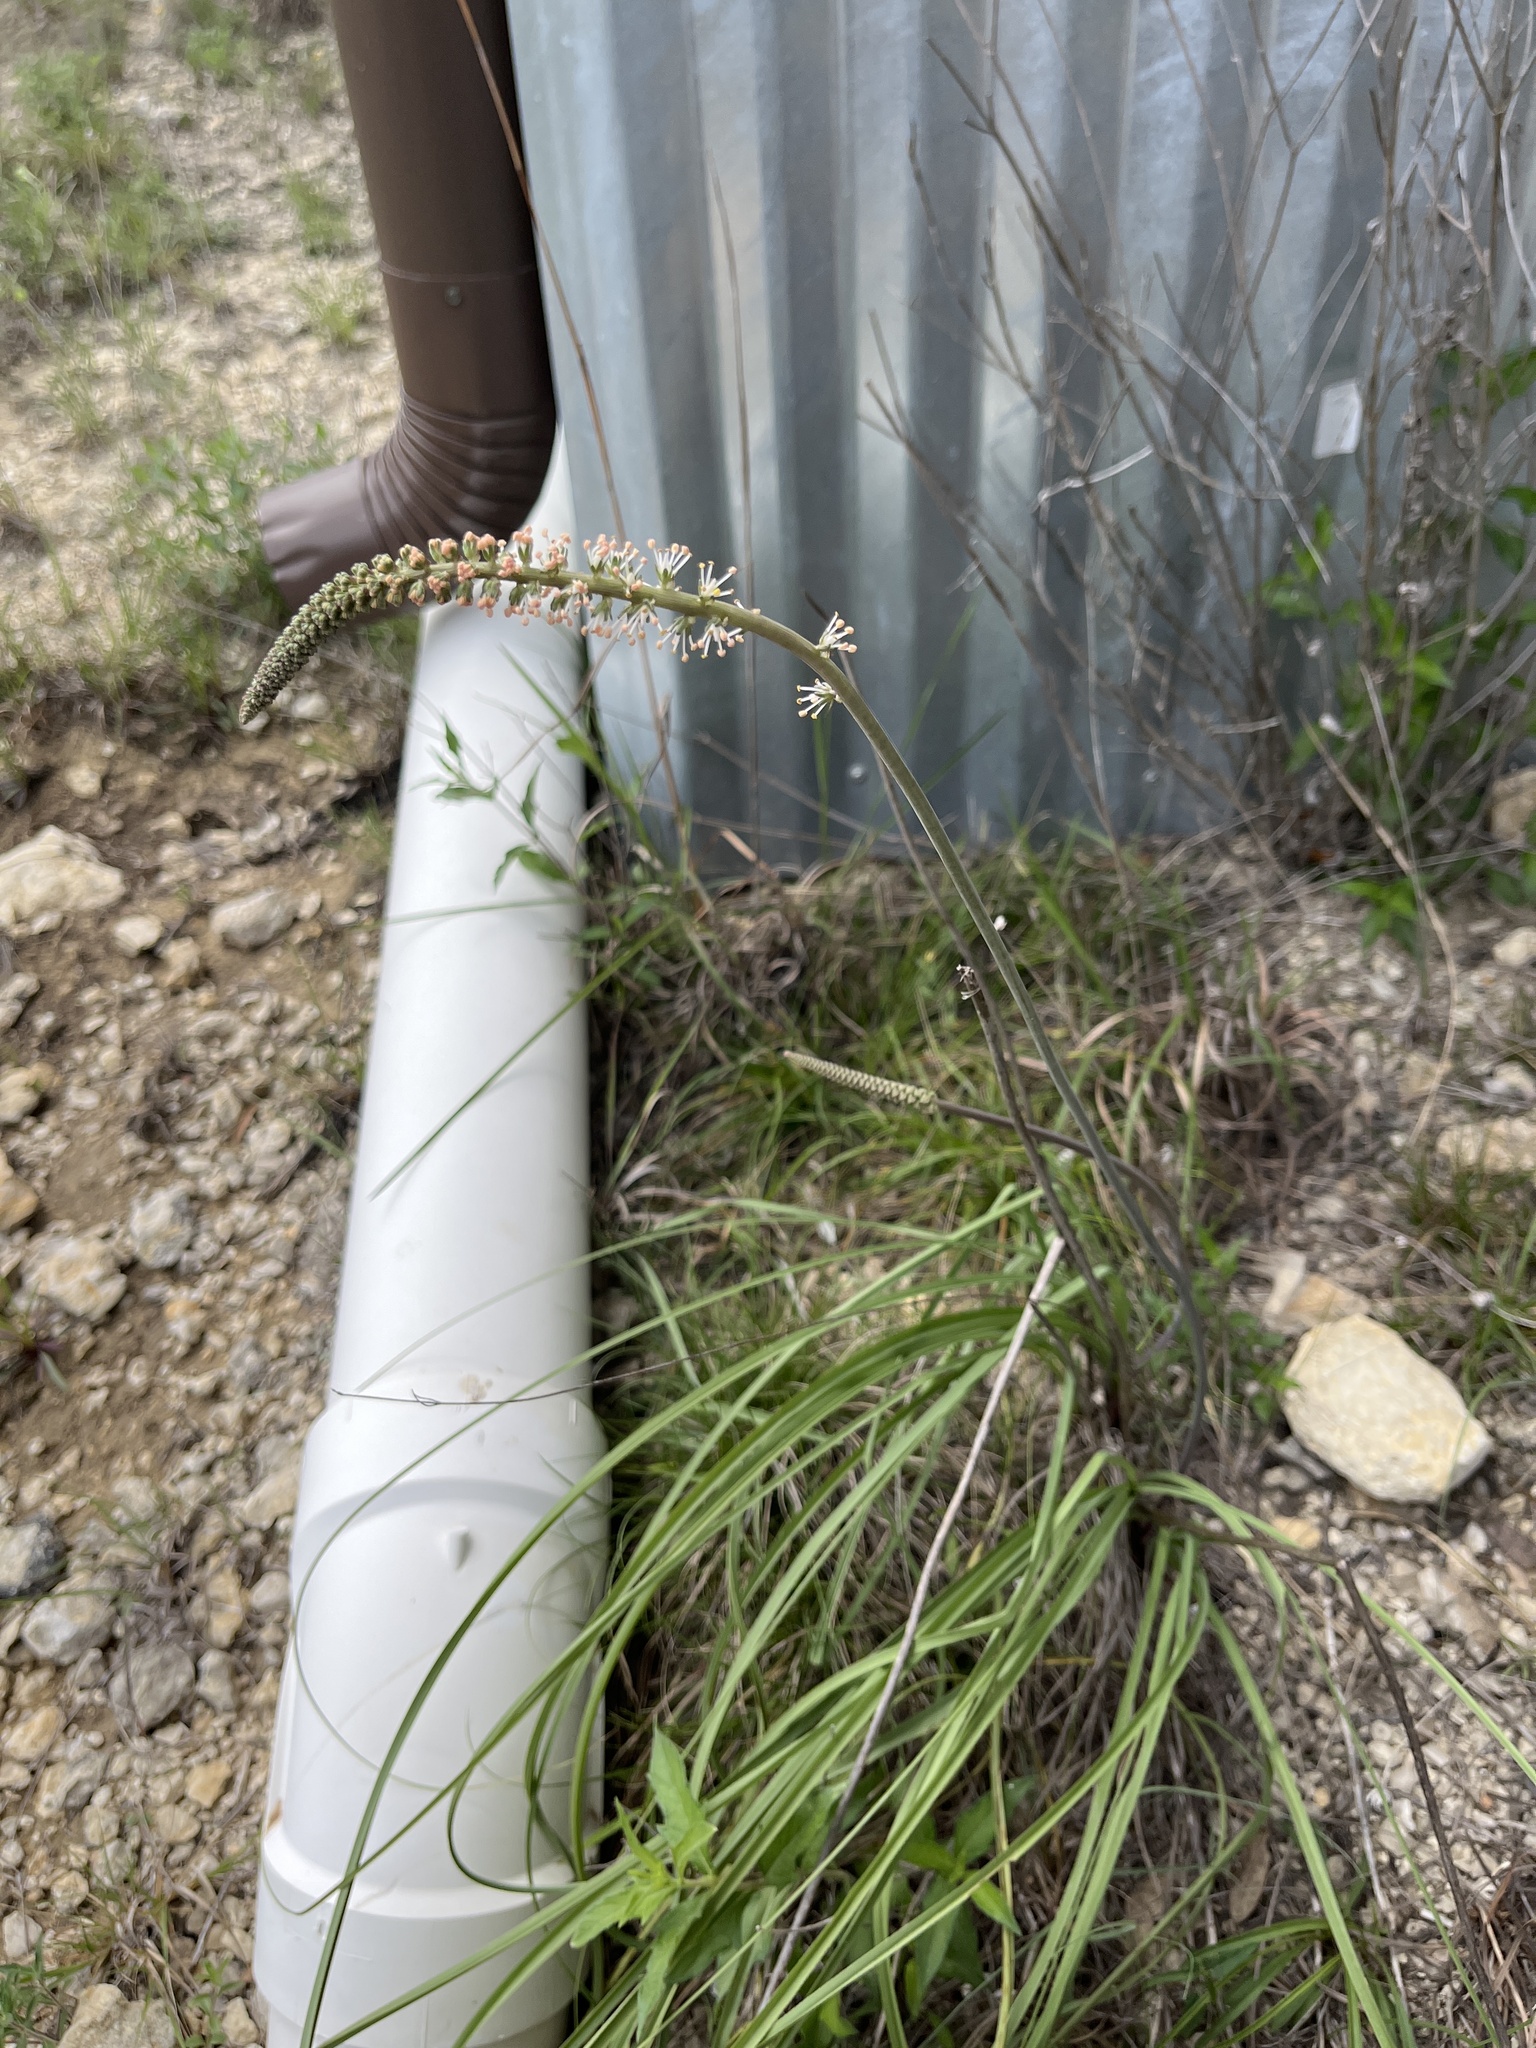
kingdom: Plantae
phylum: Tracheophyta
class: Liliopsida
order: Liliales
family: Melanthiaceae
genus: Schoenocaulon
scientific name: Schoenocaulon texanum
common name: Texas feather-shank
